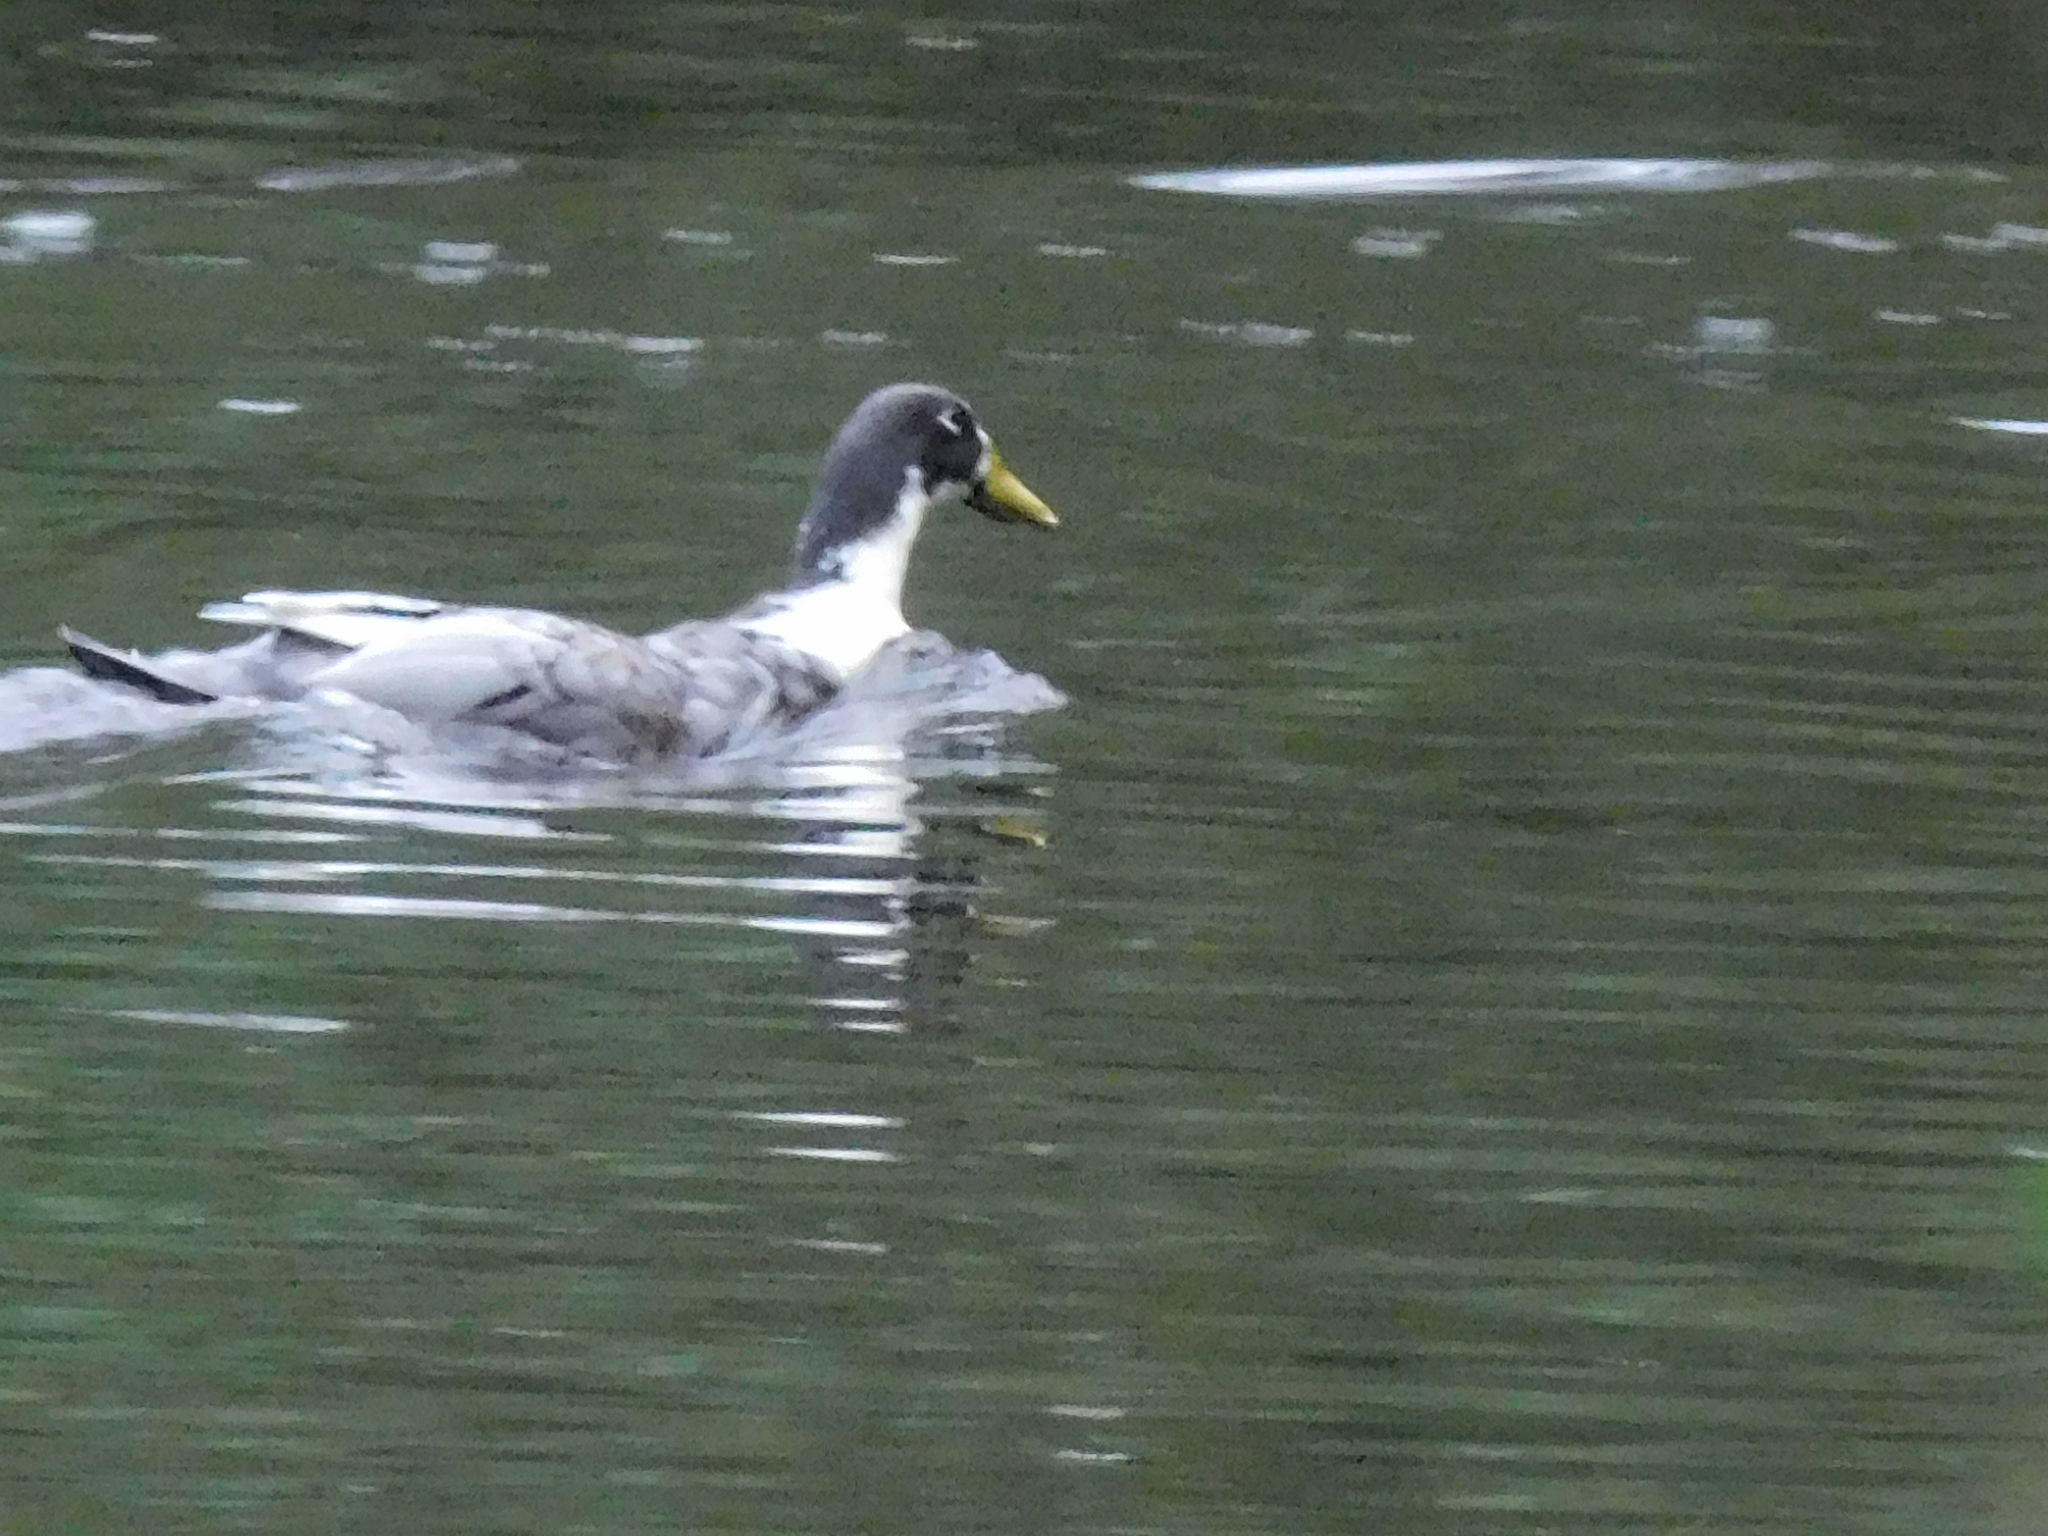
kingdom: Animalia
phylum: Chordata
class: Aves
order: Anseriformes
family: Anatidae
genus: Anas
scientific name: Anas platyrhynchos
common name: Mallard
